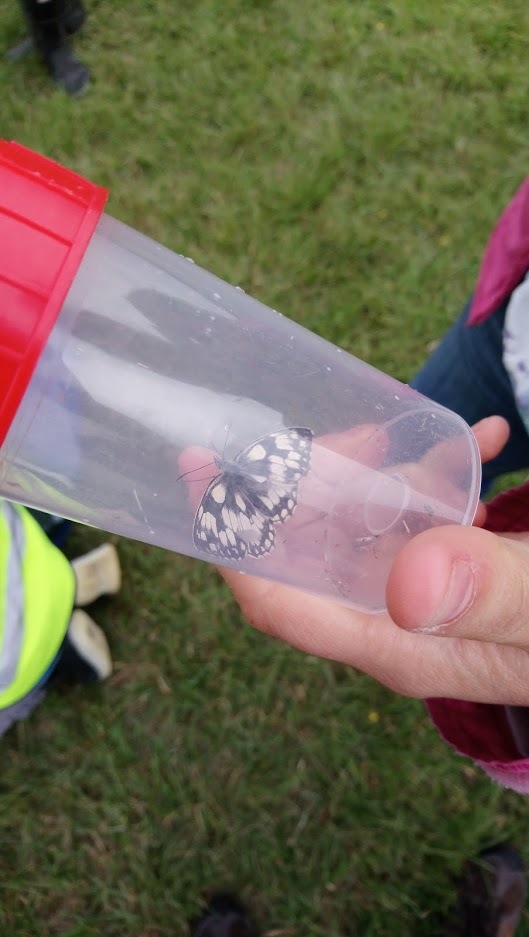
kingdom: Animalia
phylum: Arthropoda
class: Insecta
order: Lepidoptera
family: Nymphalidae
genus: Melanargia
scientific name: Melanargia galathea
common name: Marbled white
